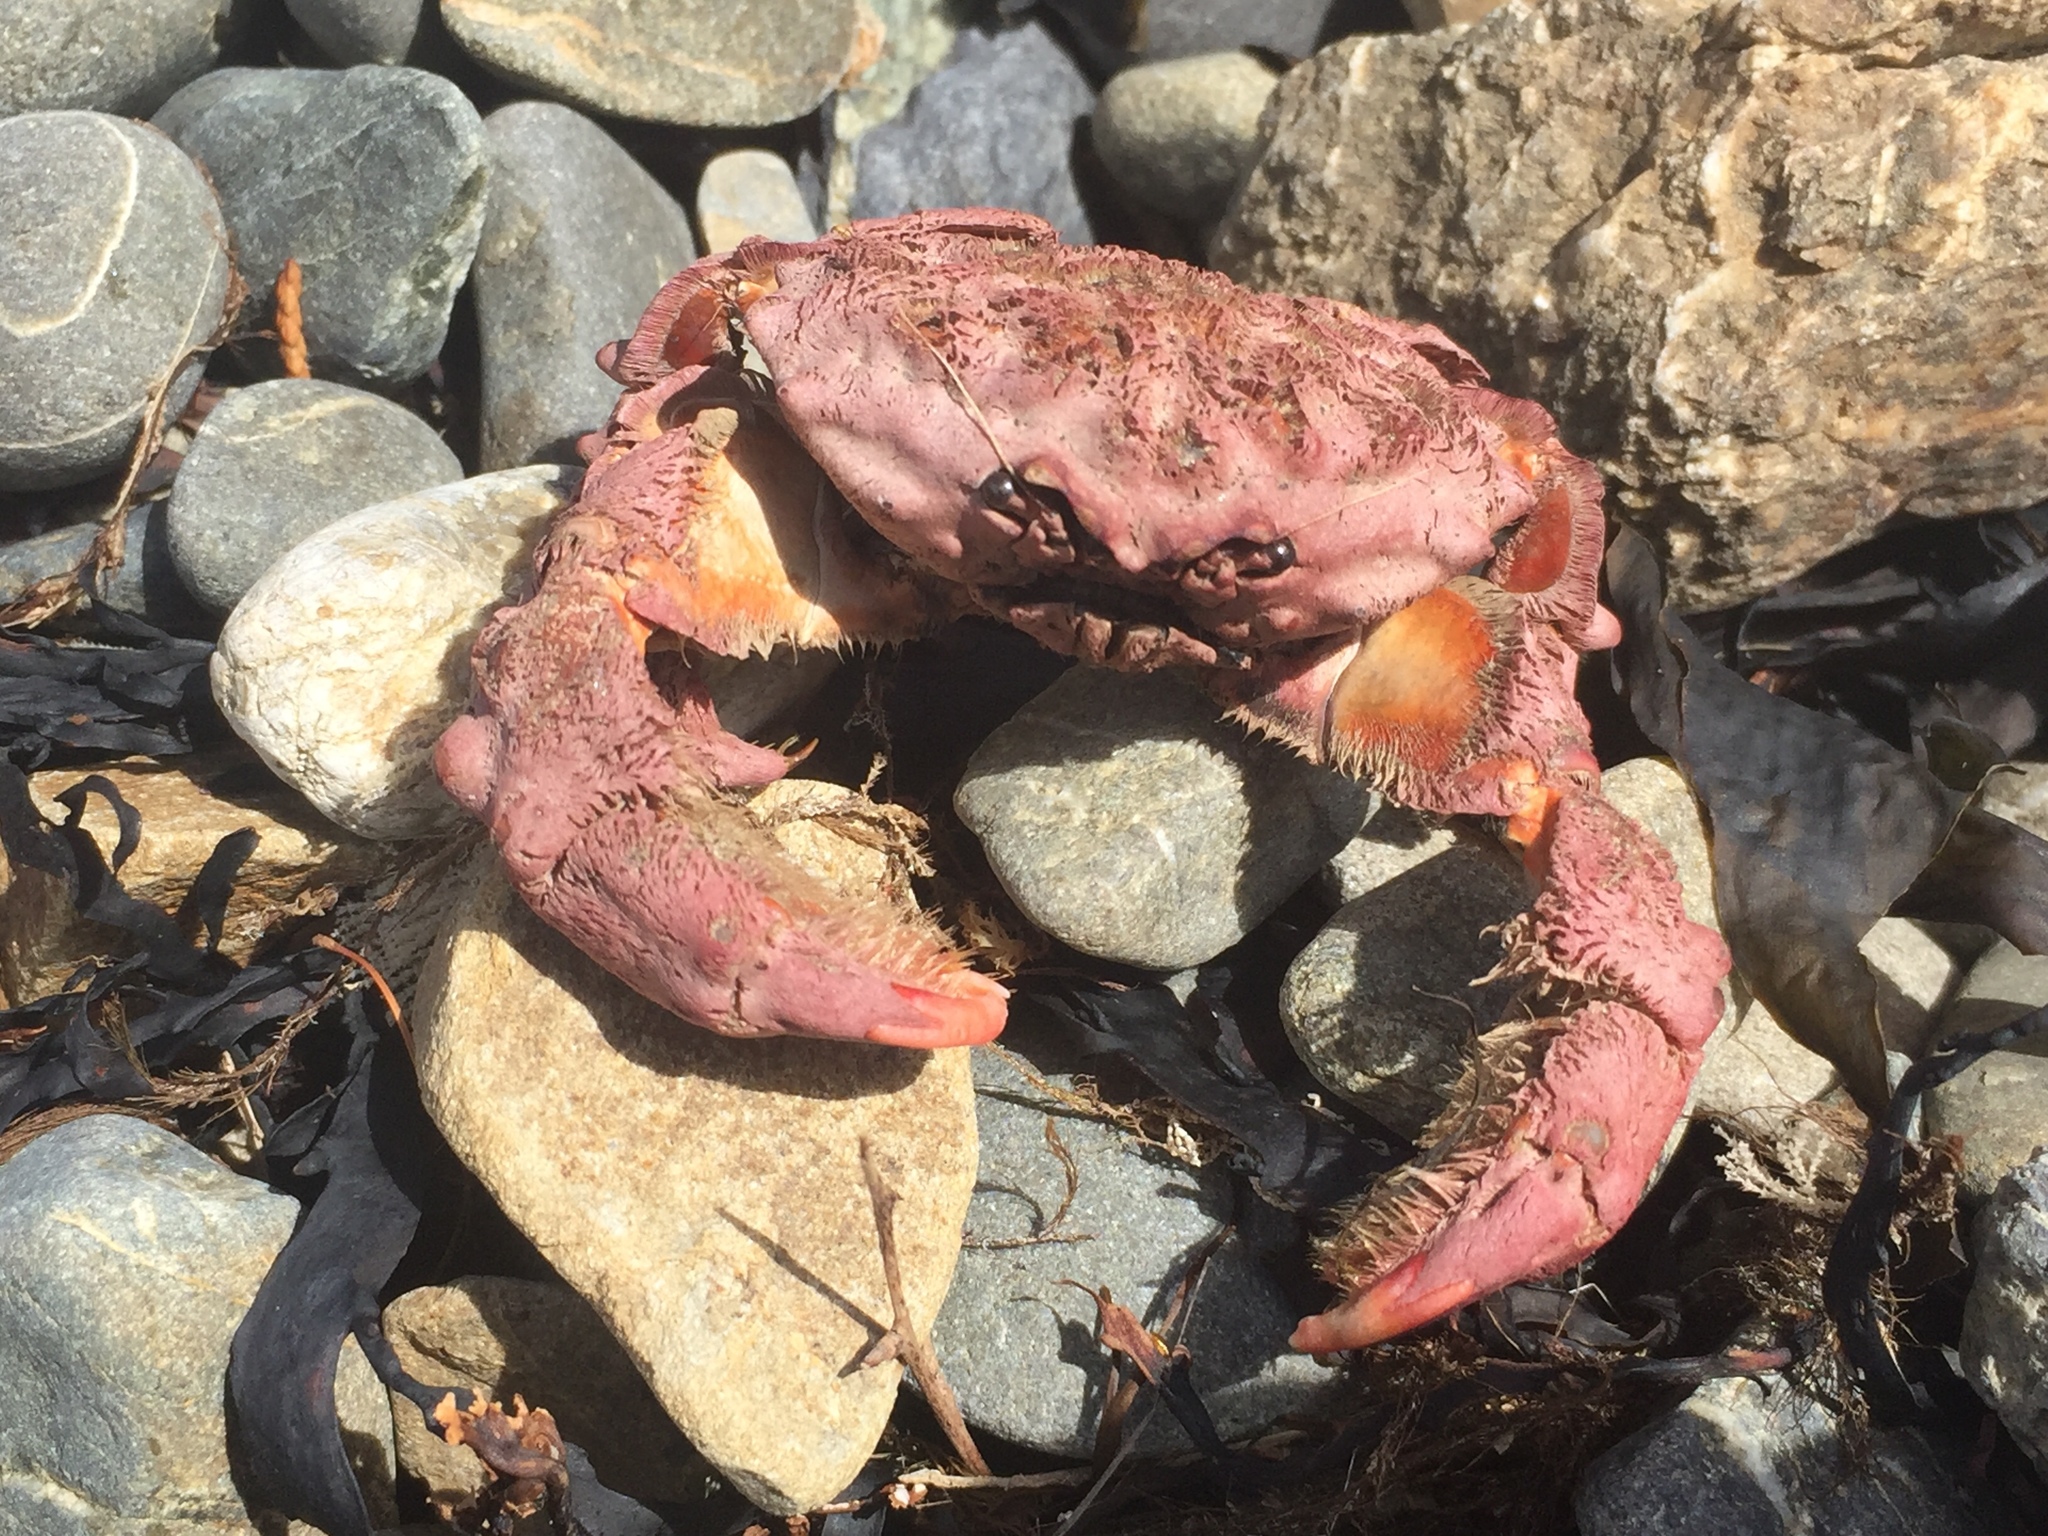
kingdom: Animalia
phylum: Arthropoda
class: Malacostraca
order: Decapoda
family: Dromiidae
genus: Metadromia
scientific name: Metadromia wilsoni
